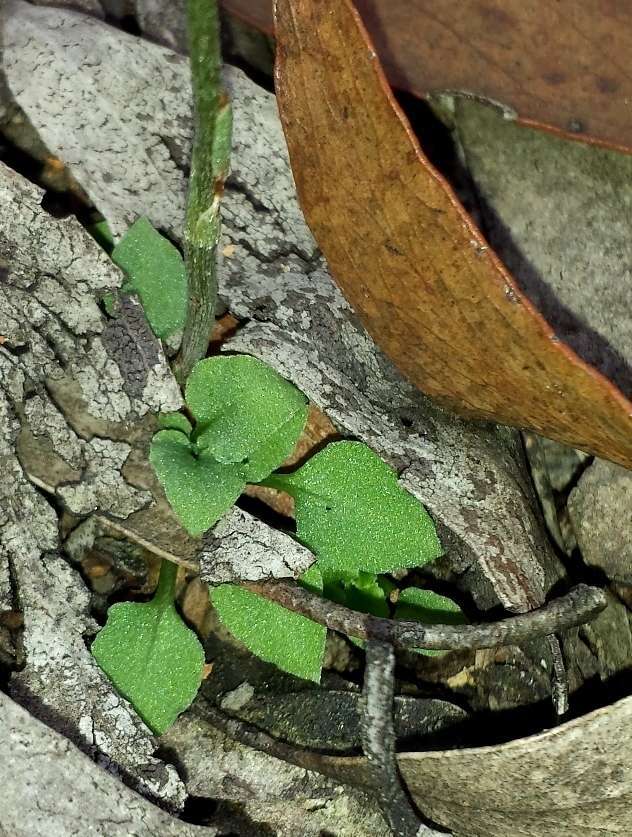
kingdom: Plantae
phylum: Tracheophyta
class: Liliopsida
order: Asparagales
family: Orchidaceae
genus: Pterostylis
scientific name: Pterostylis parviflora
